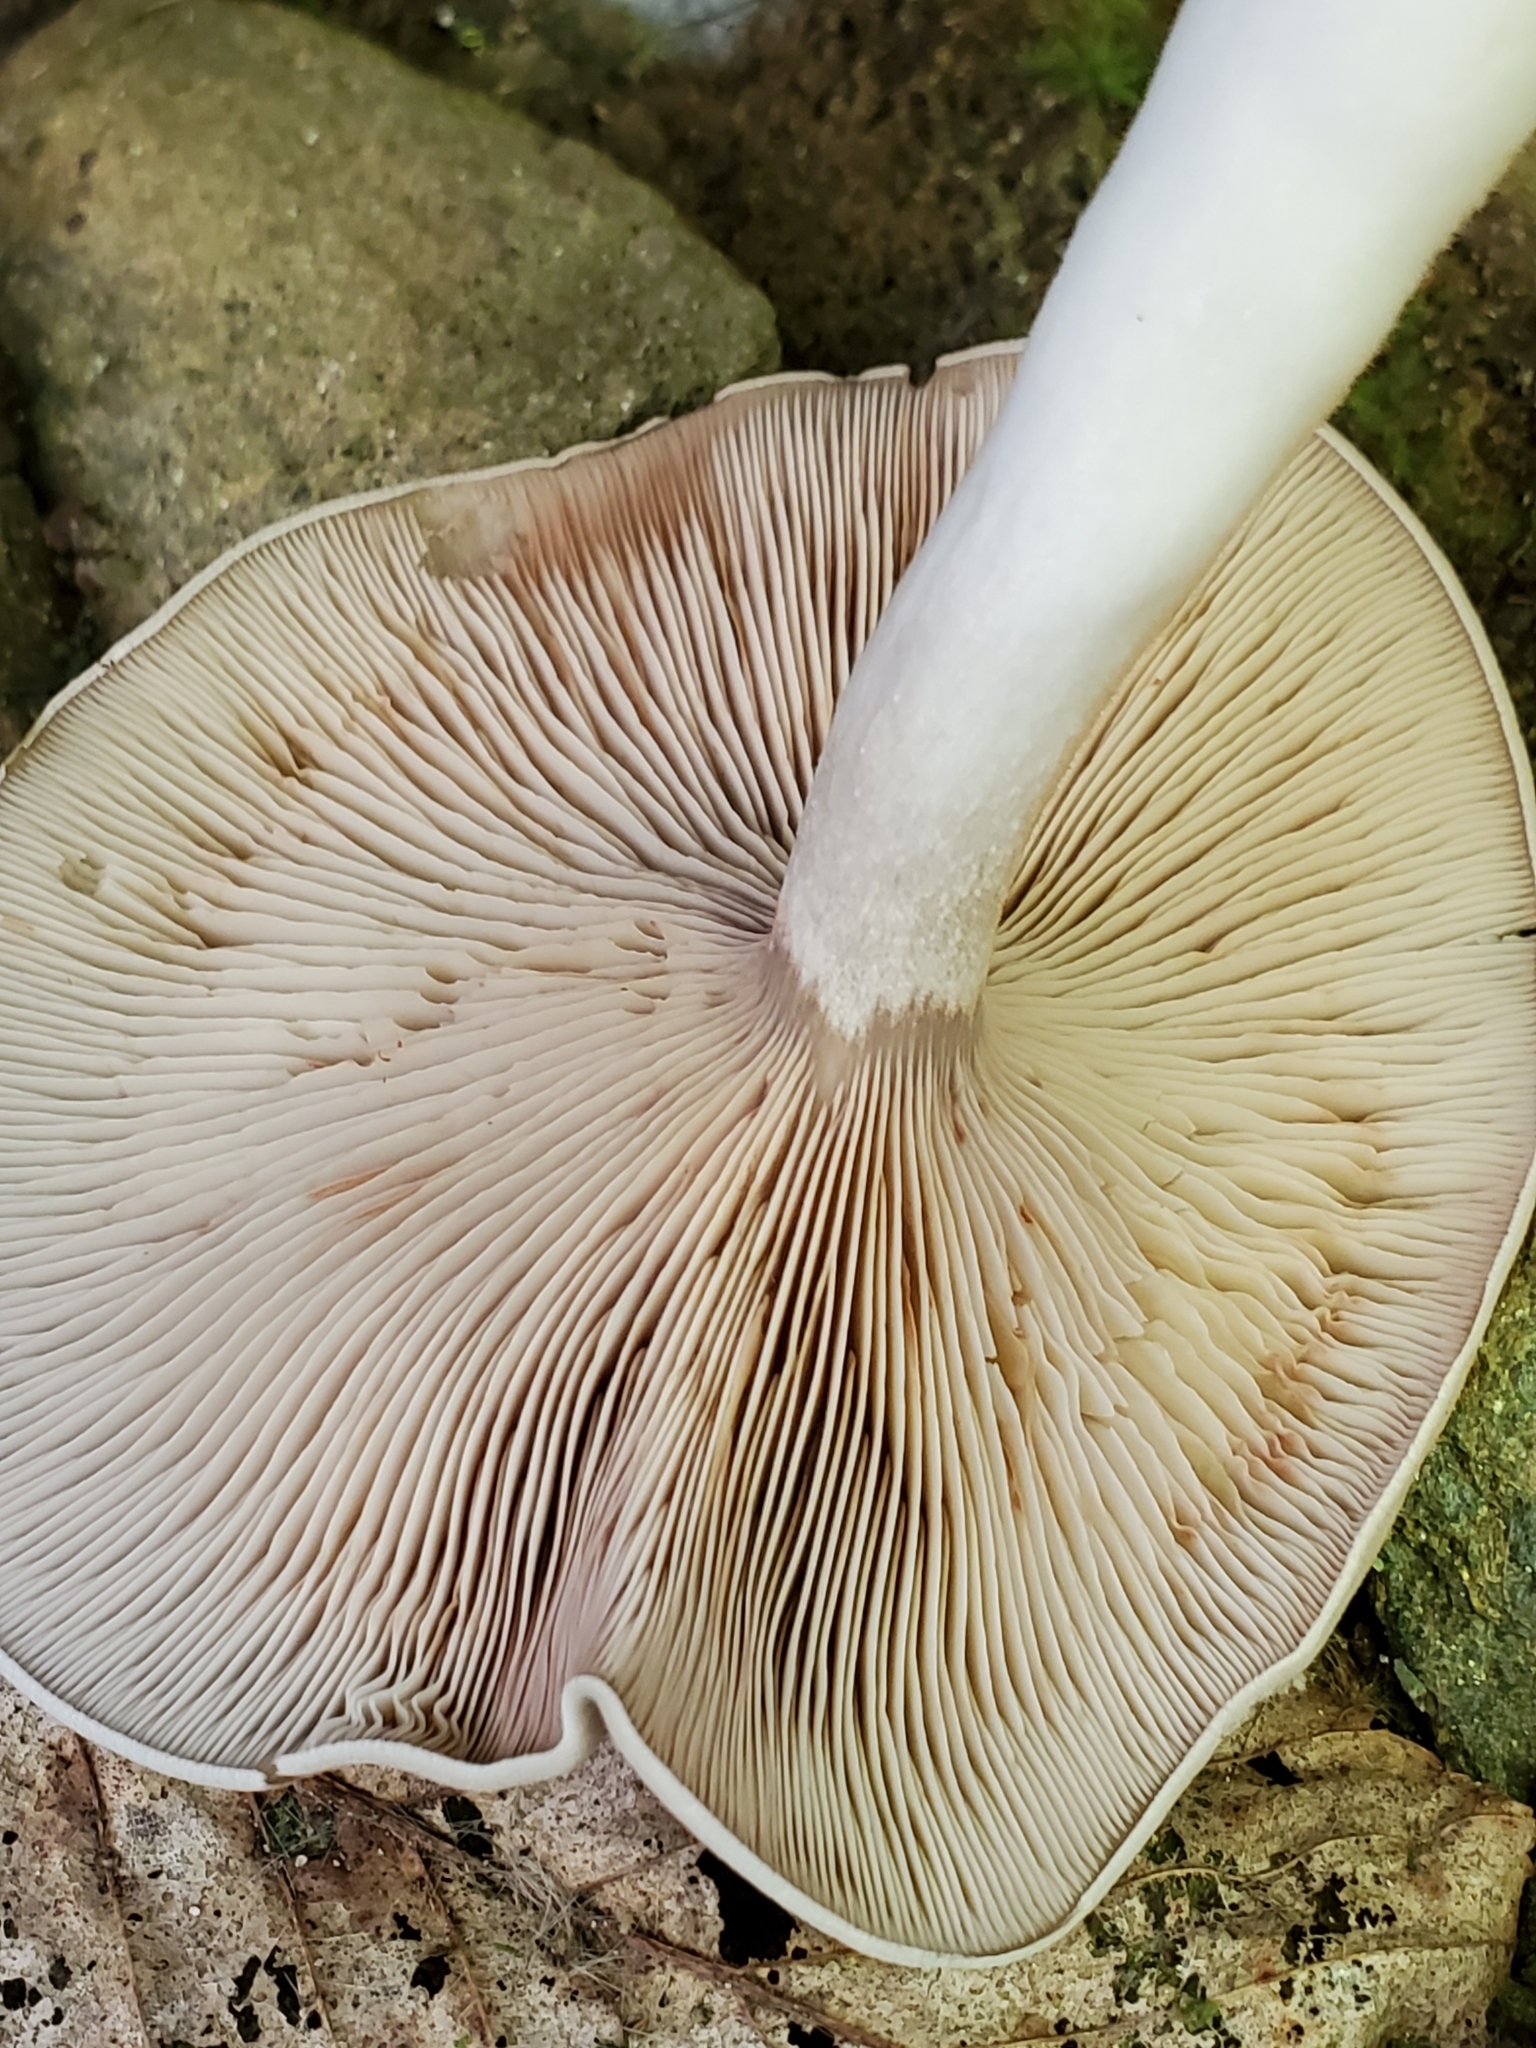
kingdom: Fungi
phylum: Basidiomycota
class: Agaricomycetes
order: Agaricales
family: Entolomataceae
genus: Entoloma
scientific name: Entoloma abortivum
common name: Aborted entoloma
